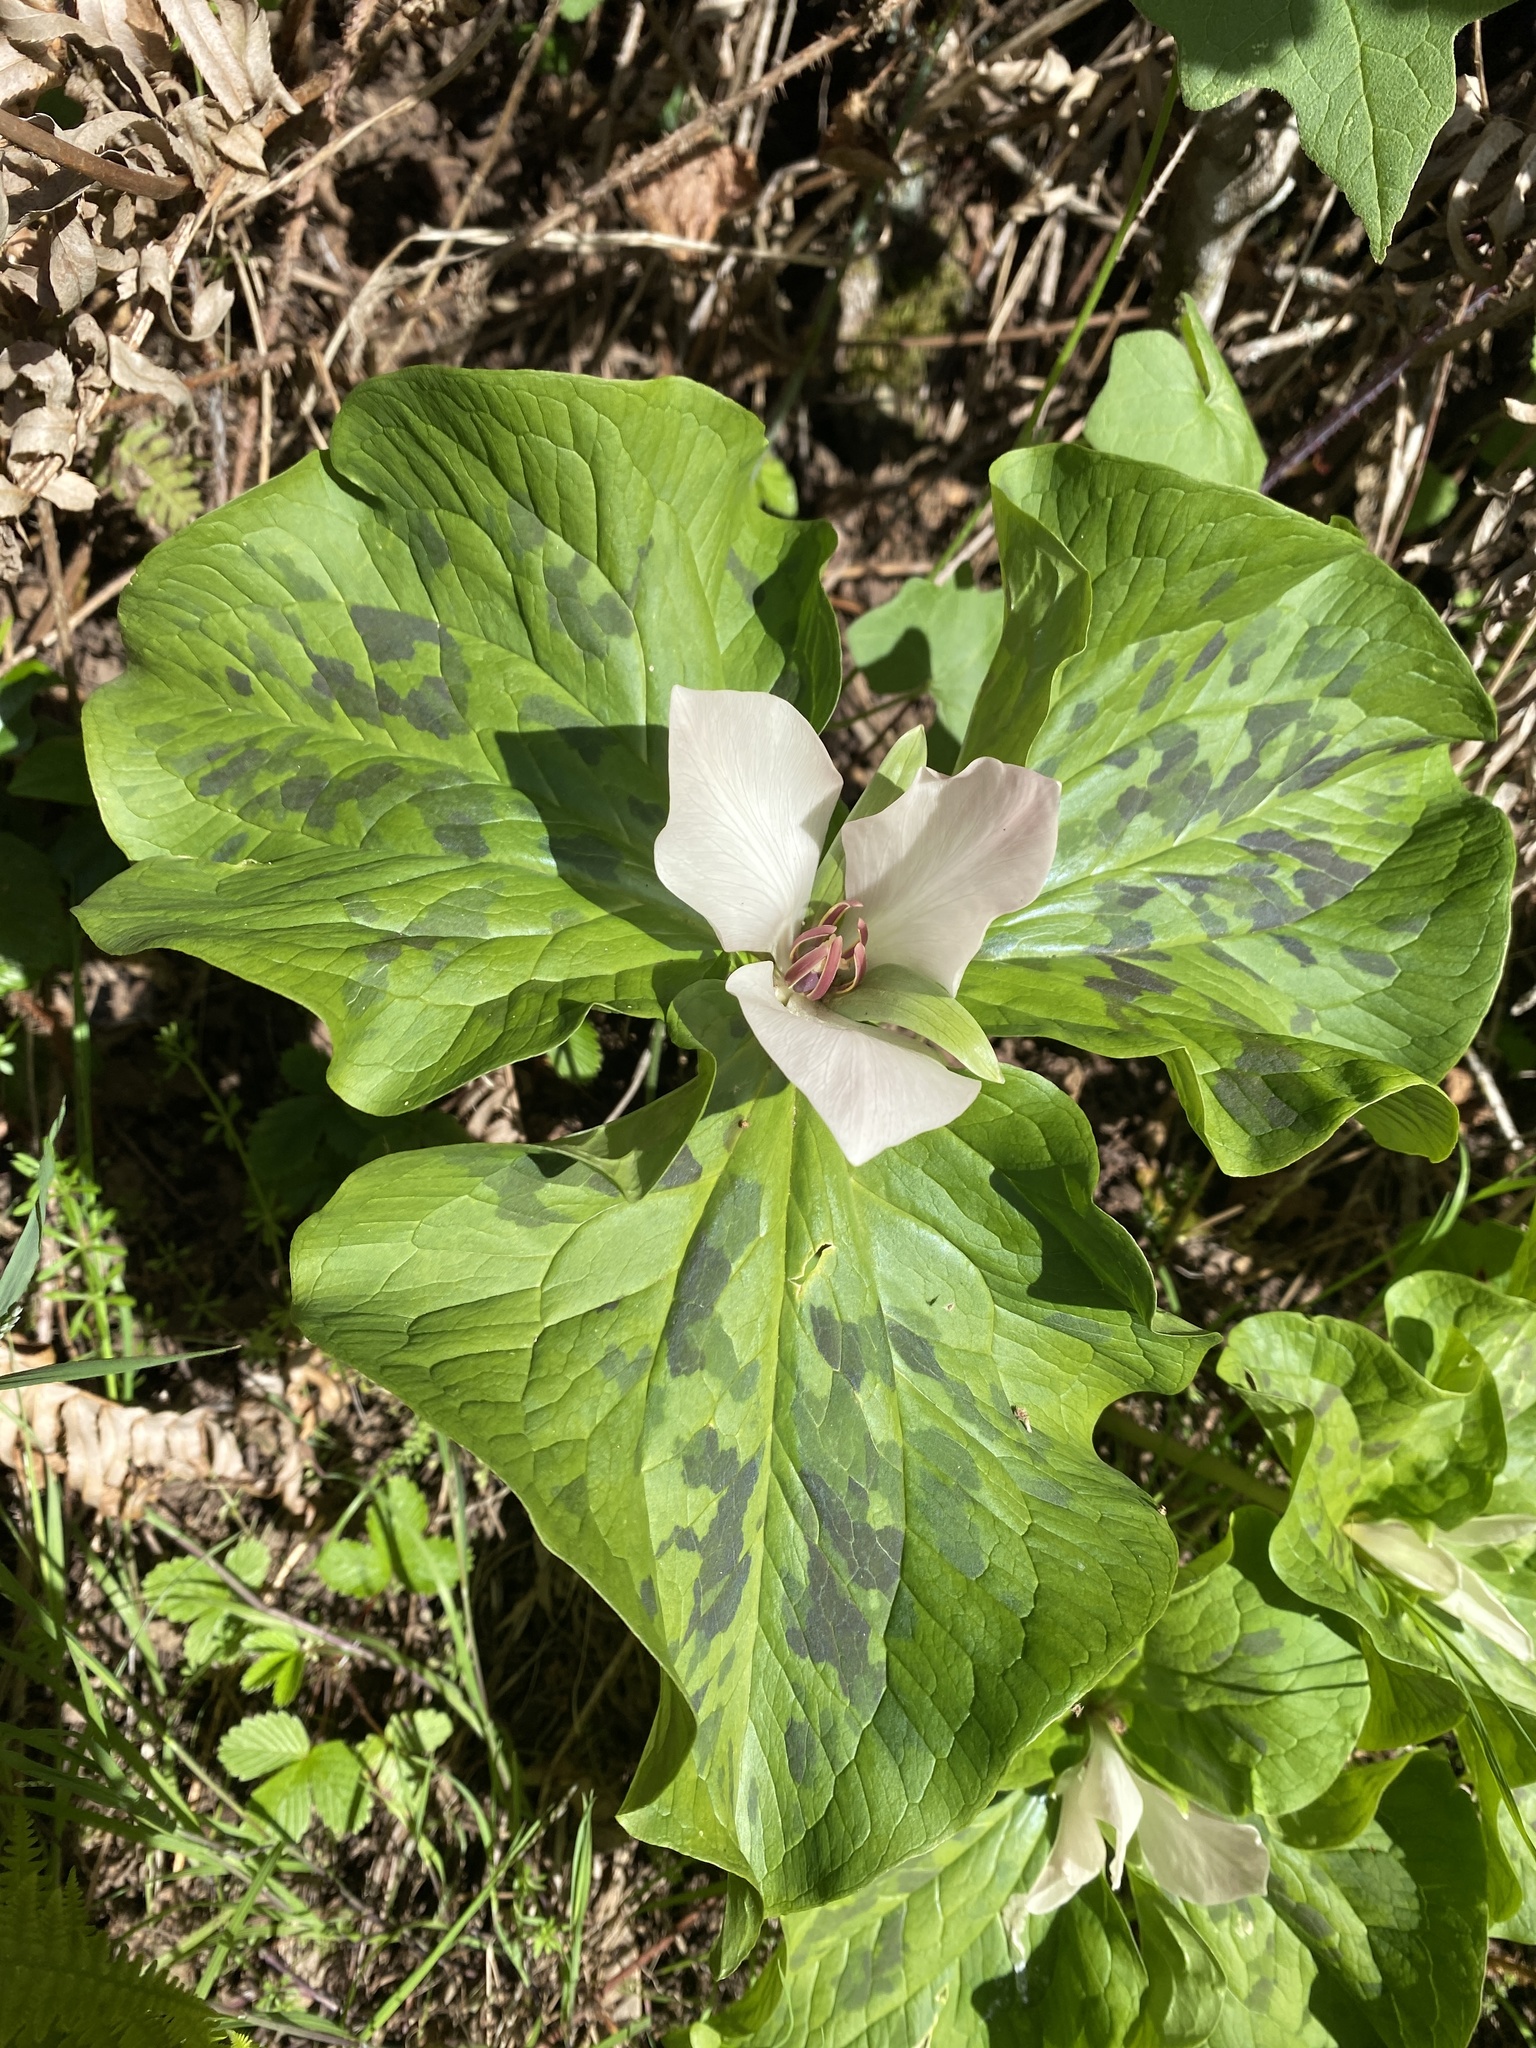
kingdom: Plantae
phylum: Tracheophyta
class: Liliopsida
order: Liliales
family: Melanthiaceae
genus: Trillium
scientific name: Trillium chloropetalum
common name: Giant trillium
